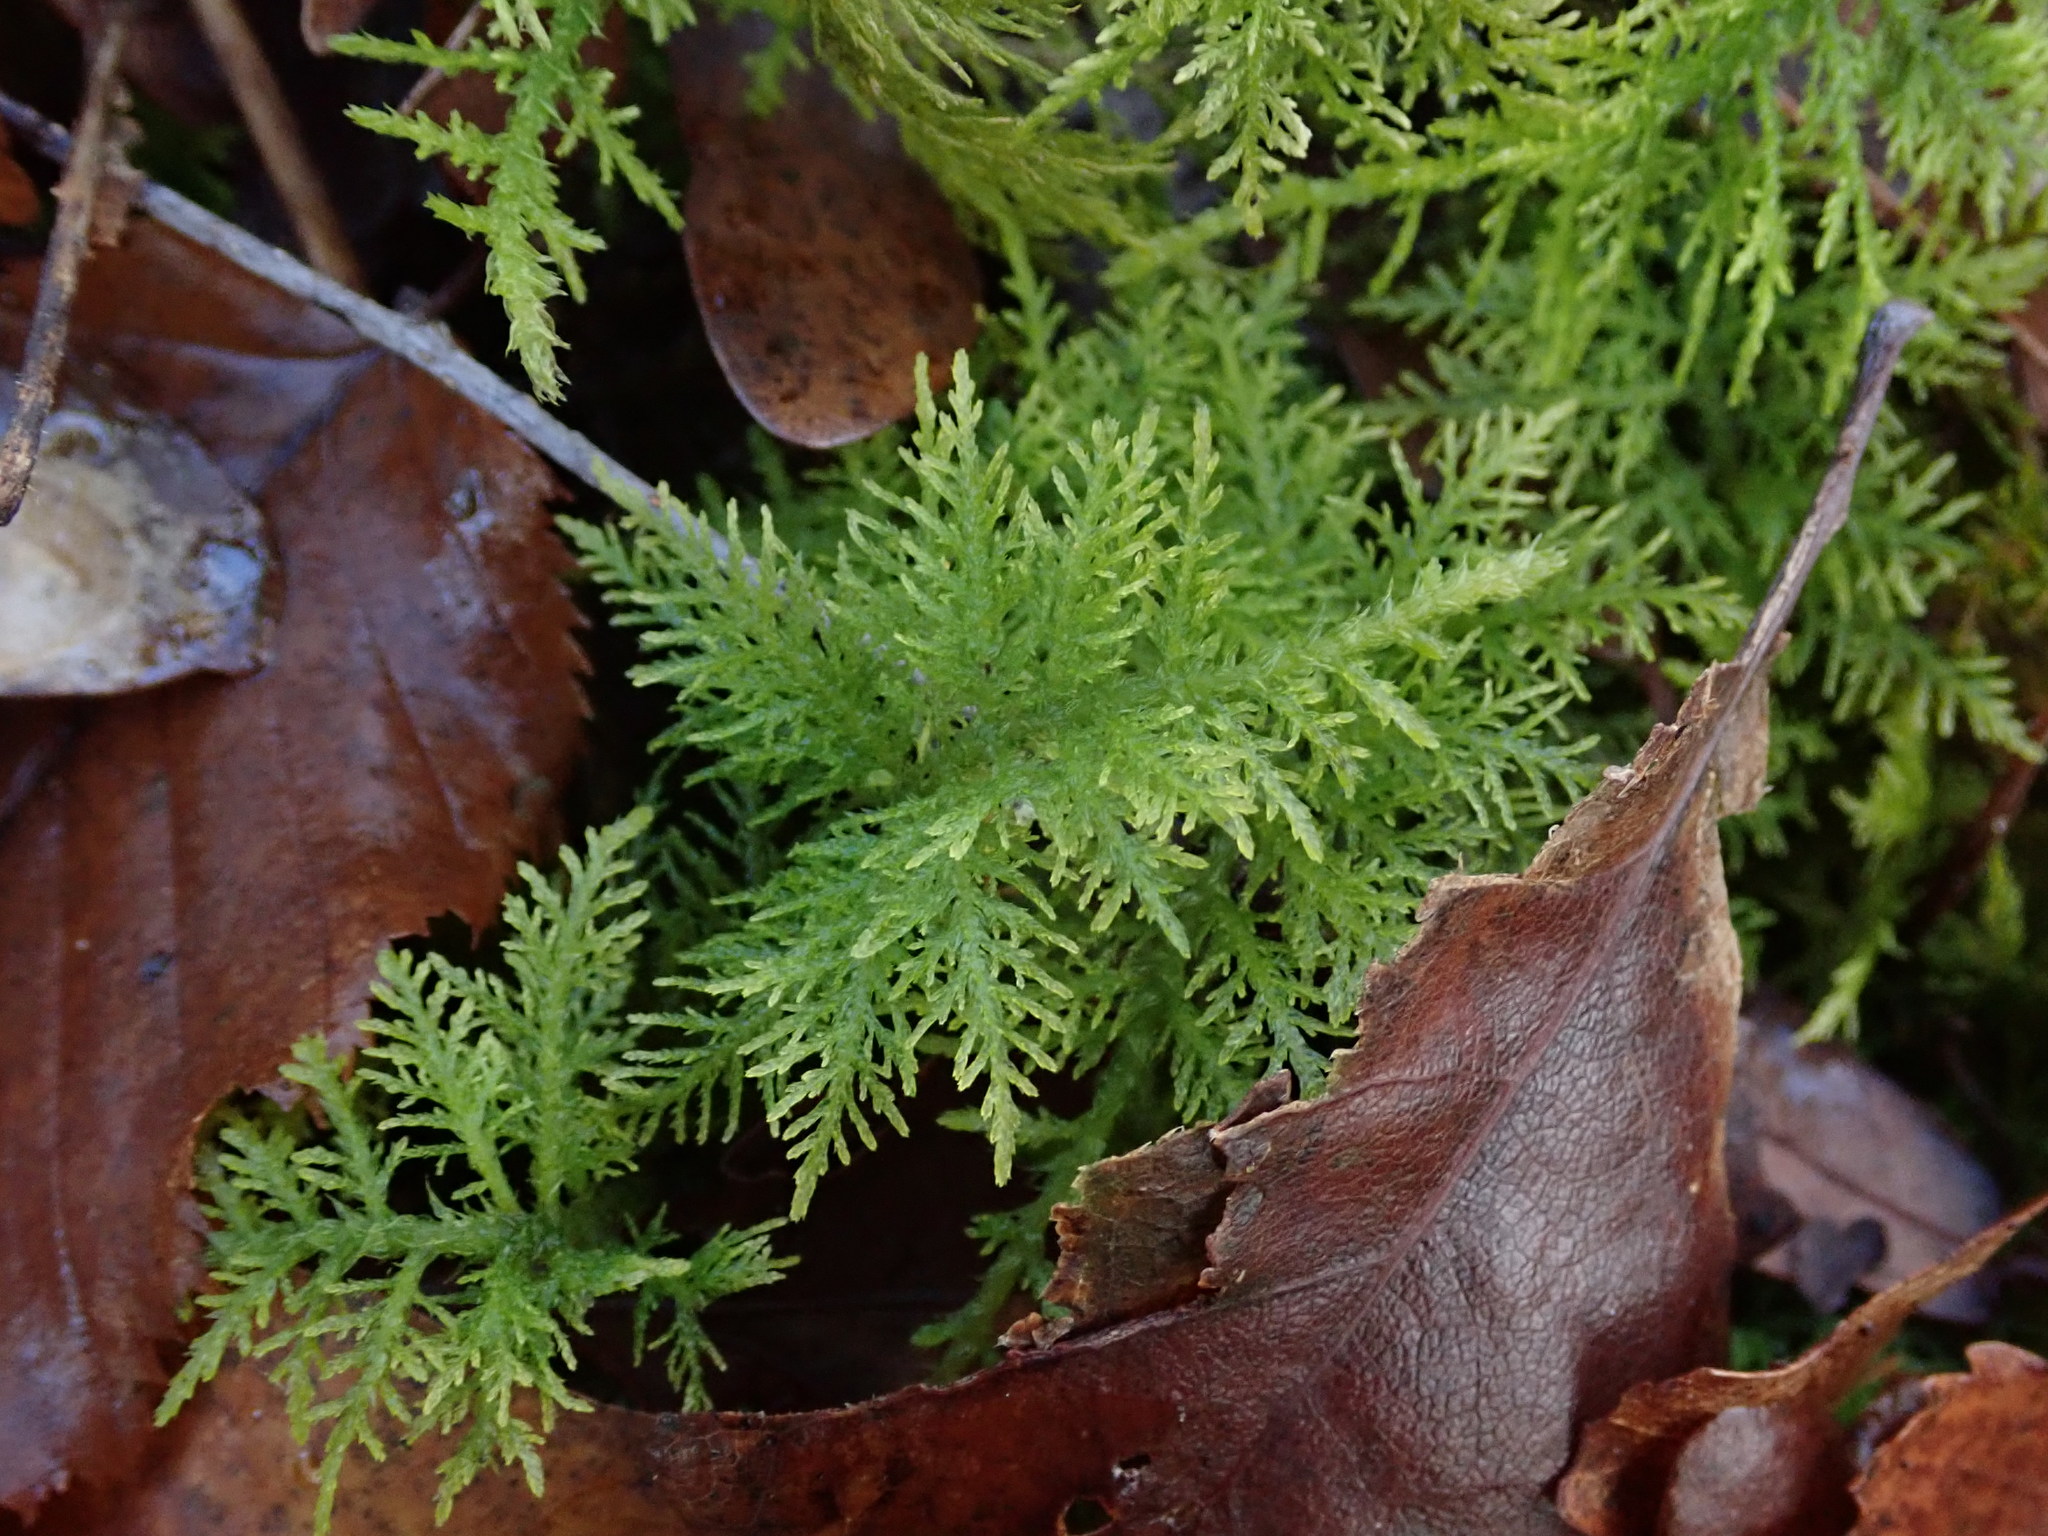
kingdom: Plantae
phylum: Bryophyta
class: Bryopsida
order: Hypnales
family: Thuidiaceae
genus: Thuidium
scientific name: Thuidium tamariscinum
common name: Common tamarisk-moss
